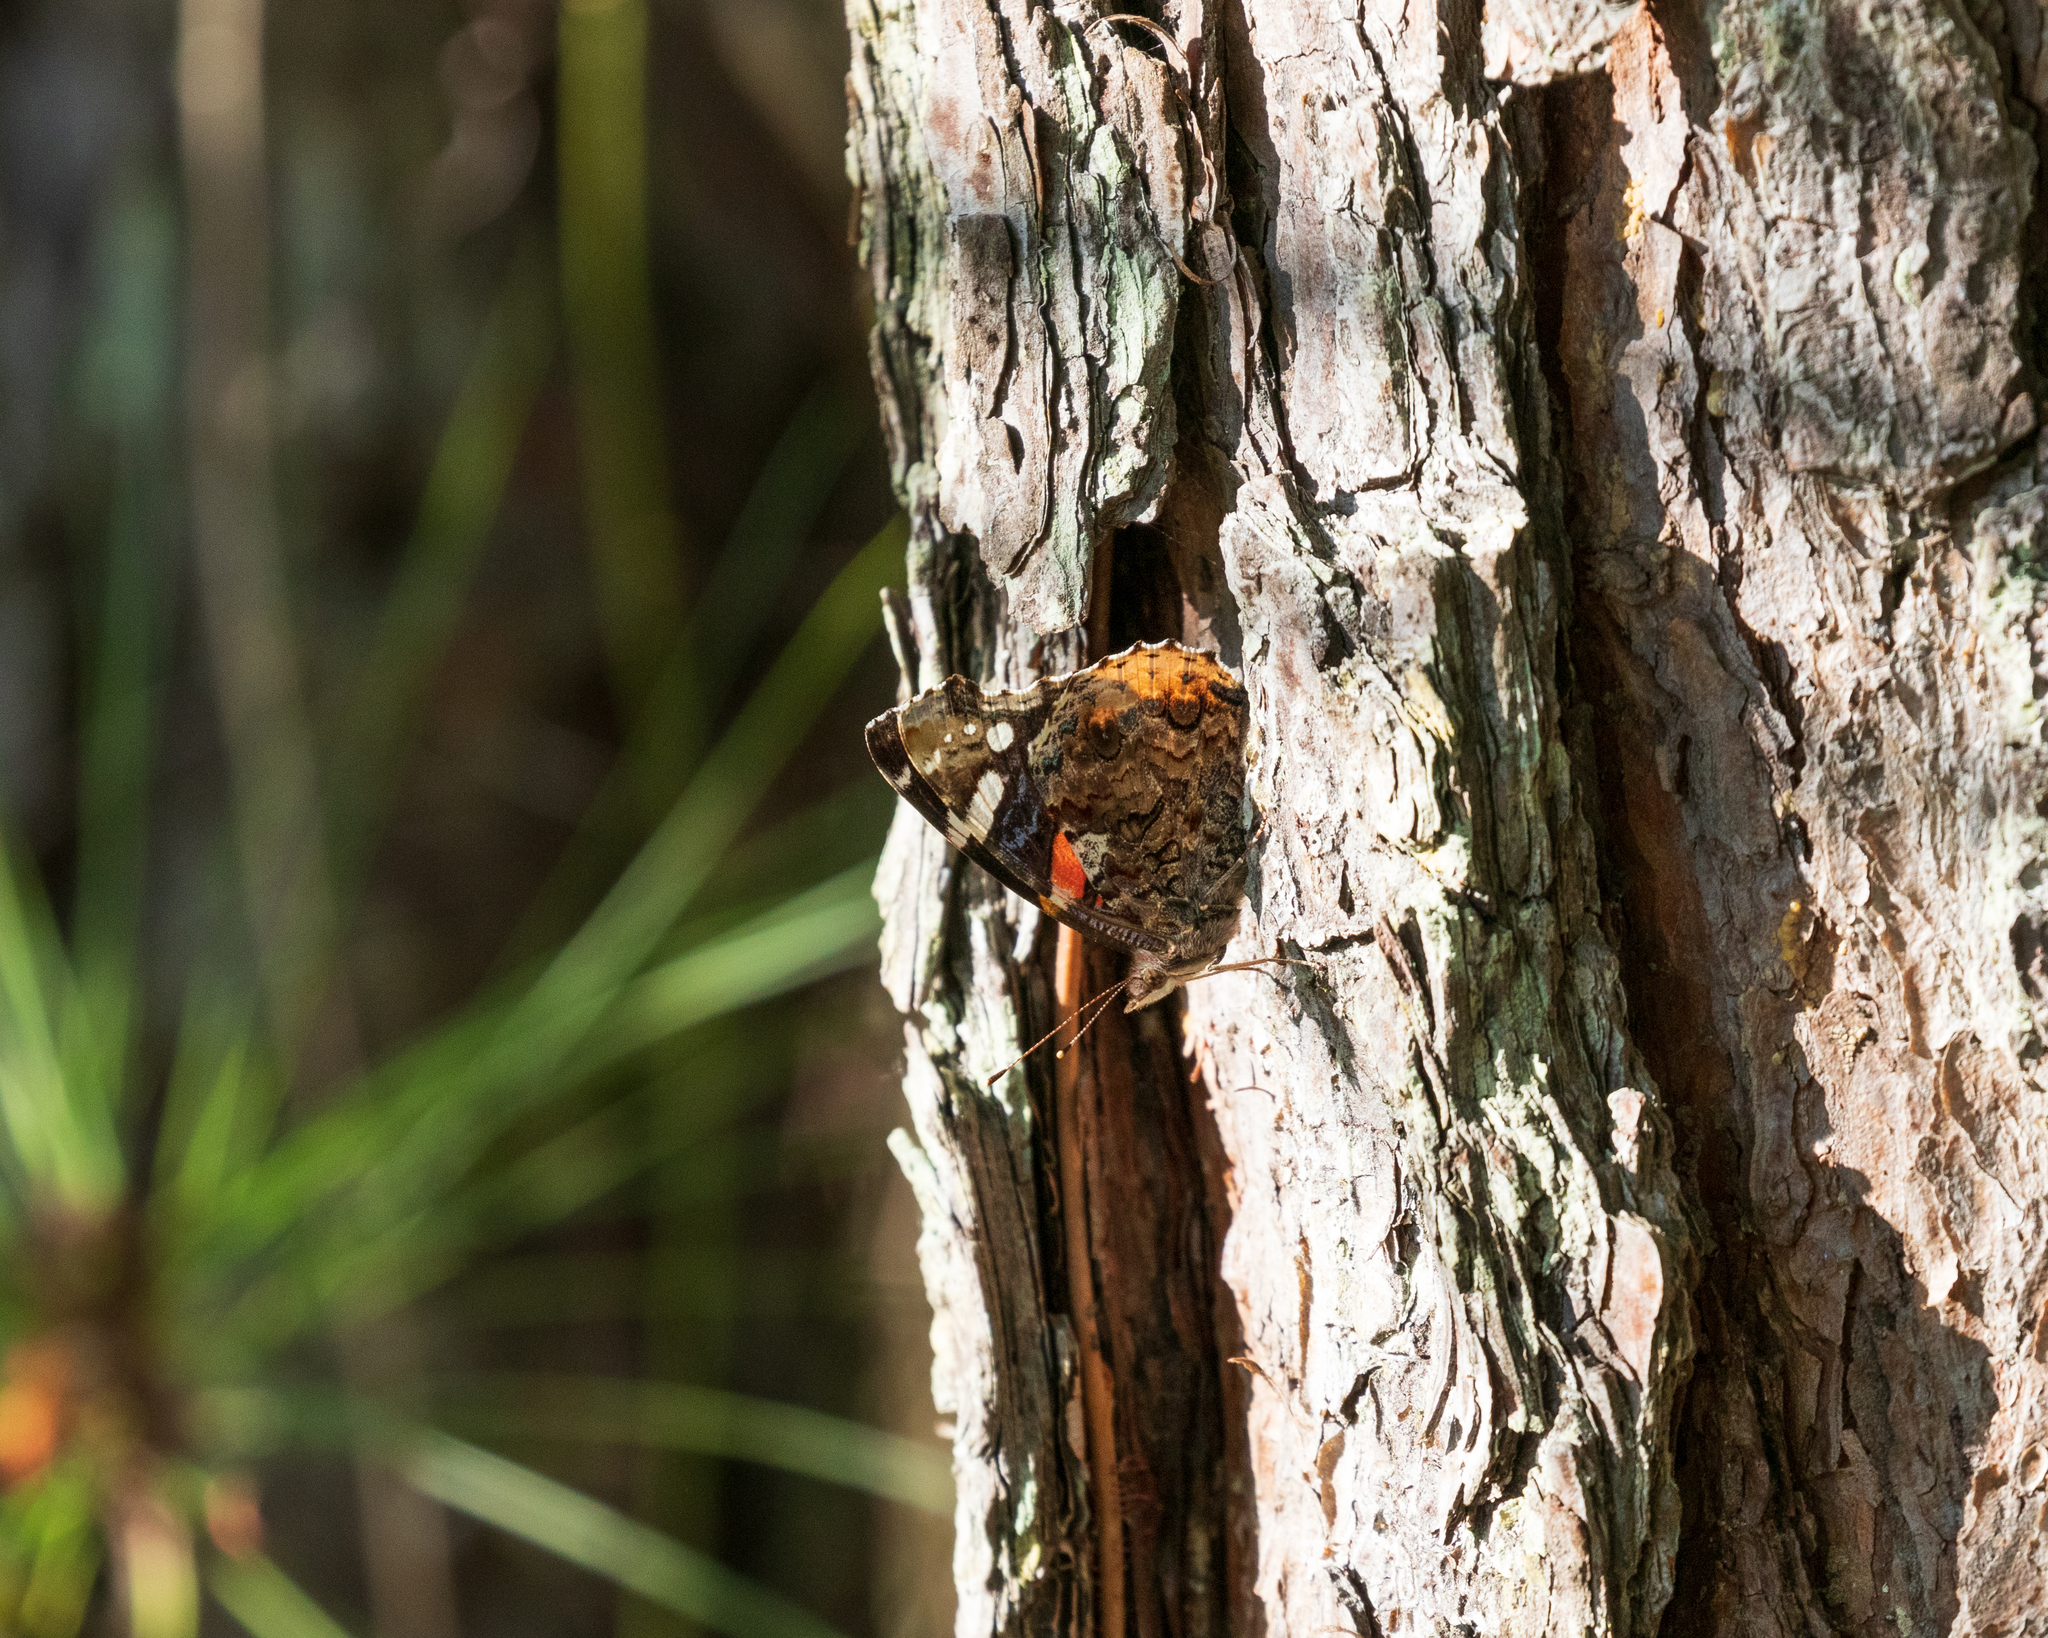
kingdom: Animalia
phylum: Arthropoda
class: Insecta
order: Lepidoptera
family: Nymphalidae
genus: Vanessa
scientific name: Vanessa atalanta
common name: Red admiral
